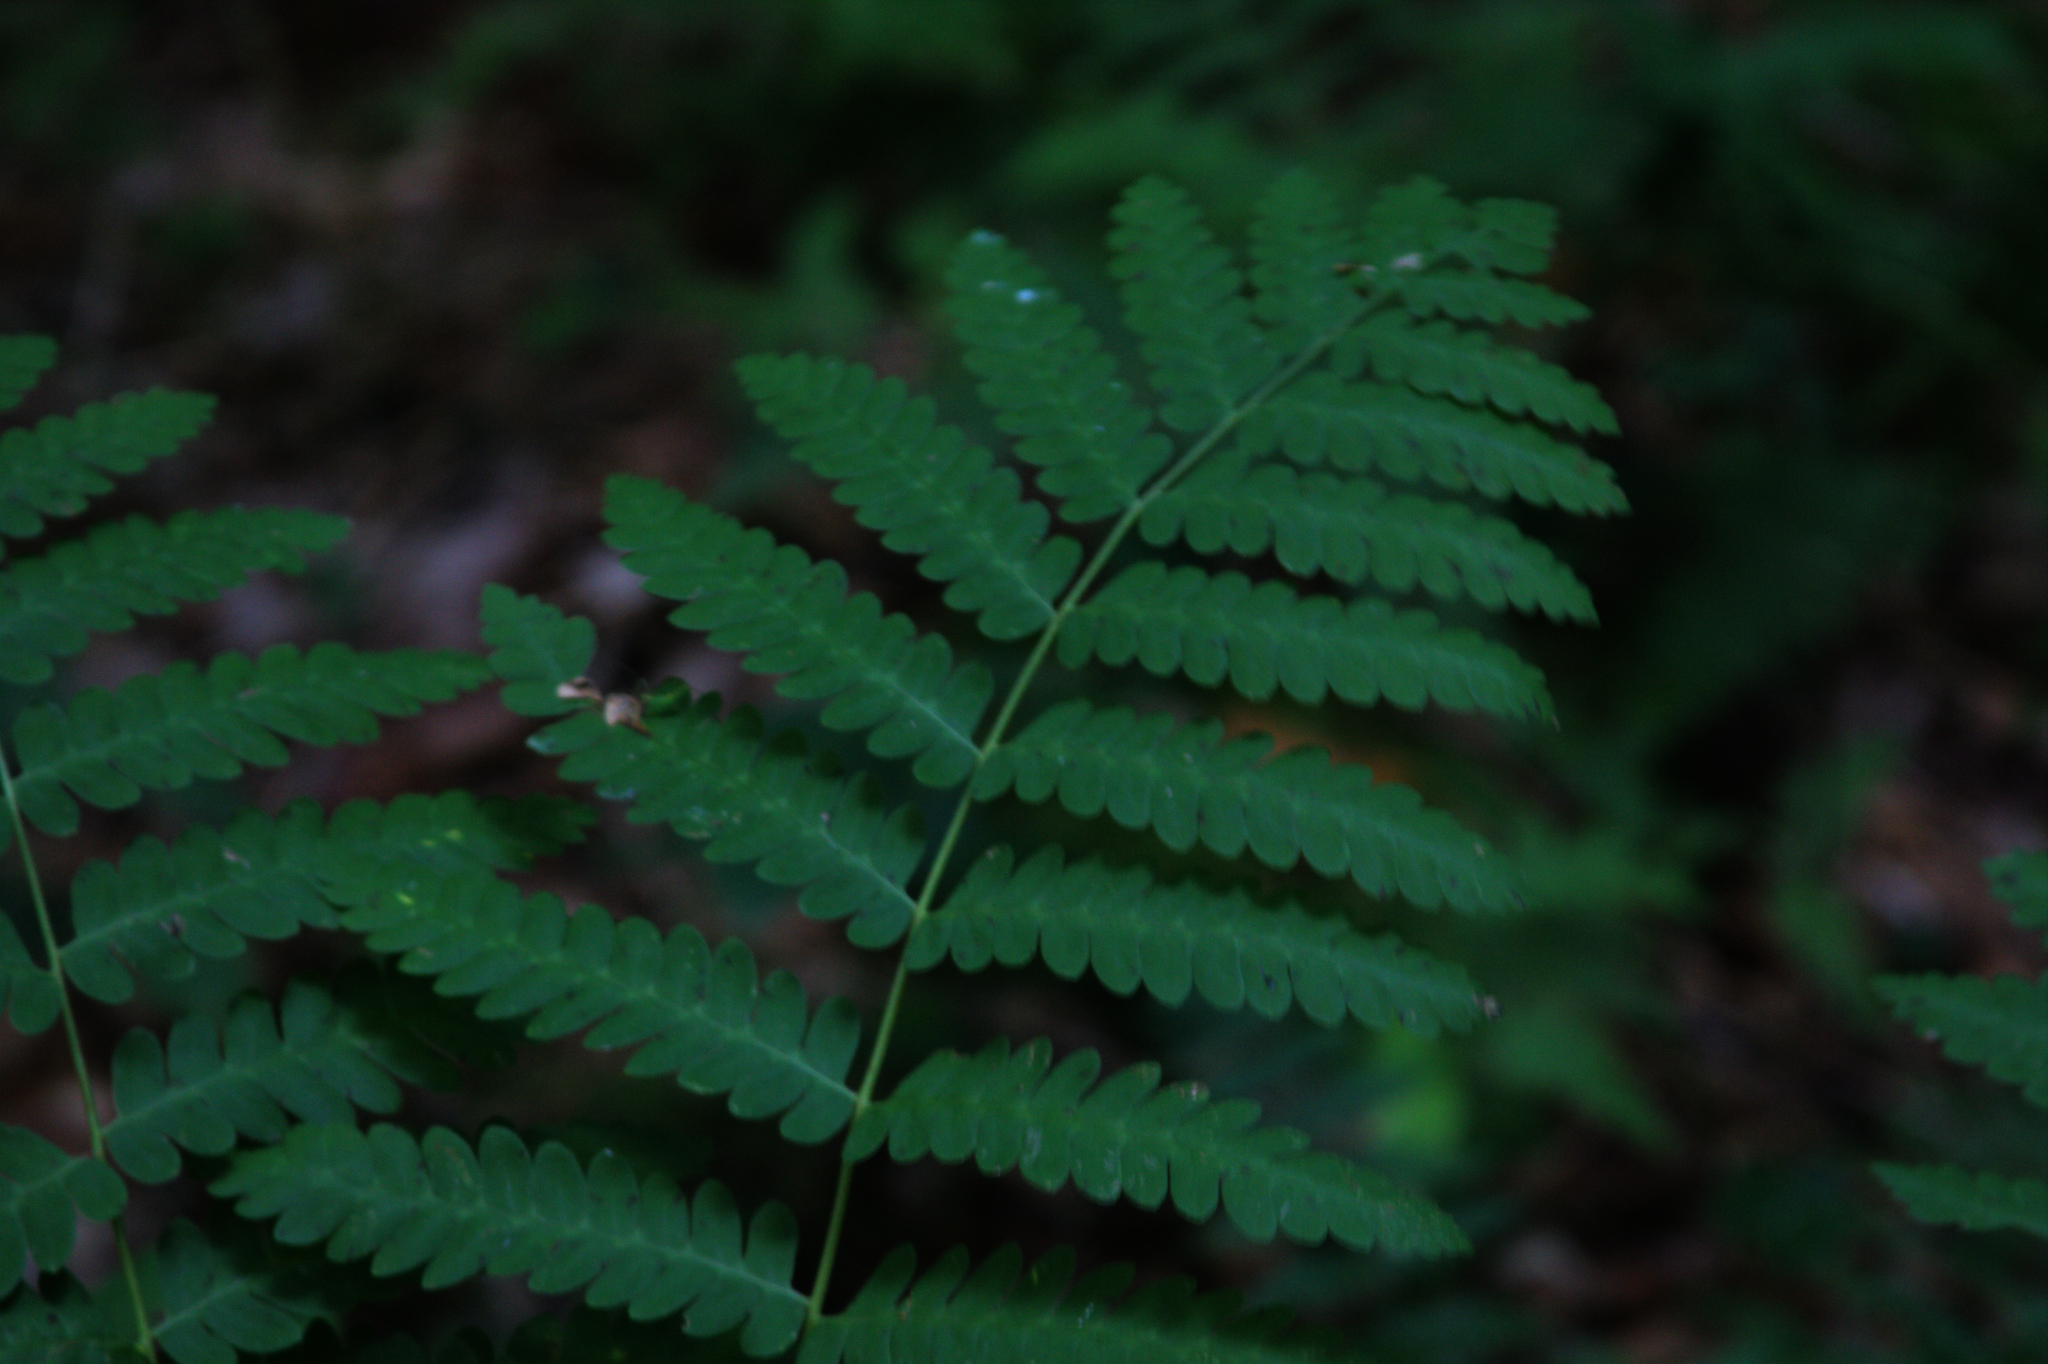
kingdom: Plantae
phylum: Tracheophyta
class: Polypodiopsida
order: Osmundales
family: Osmundaceae
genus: Claytosmunda
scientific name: Claytosmunda claytoniana
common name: Clayton's fern
